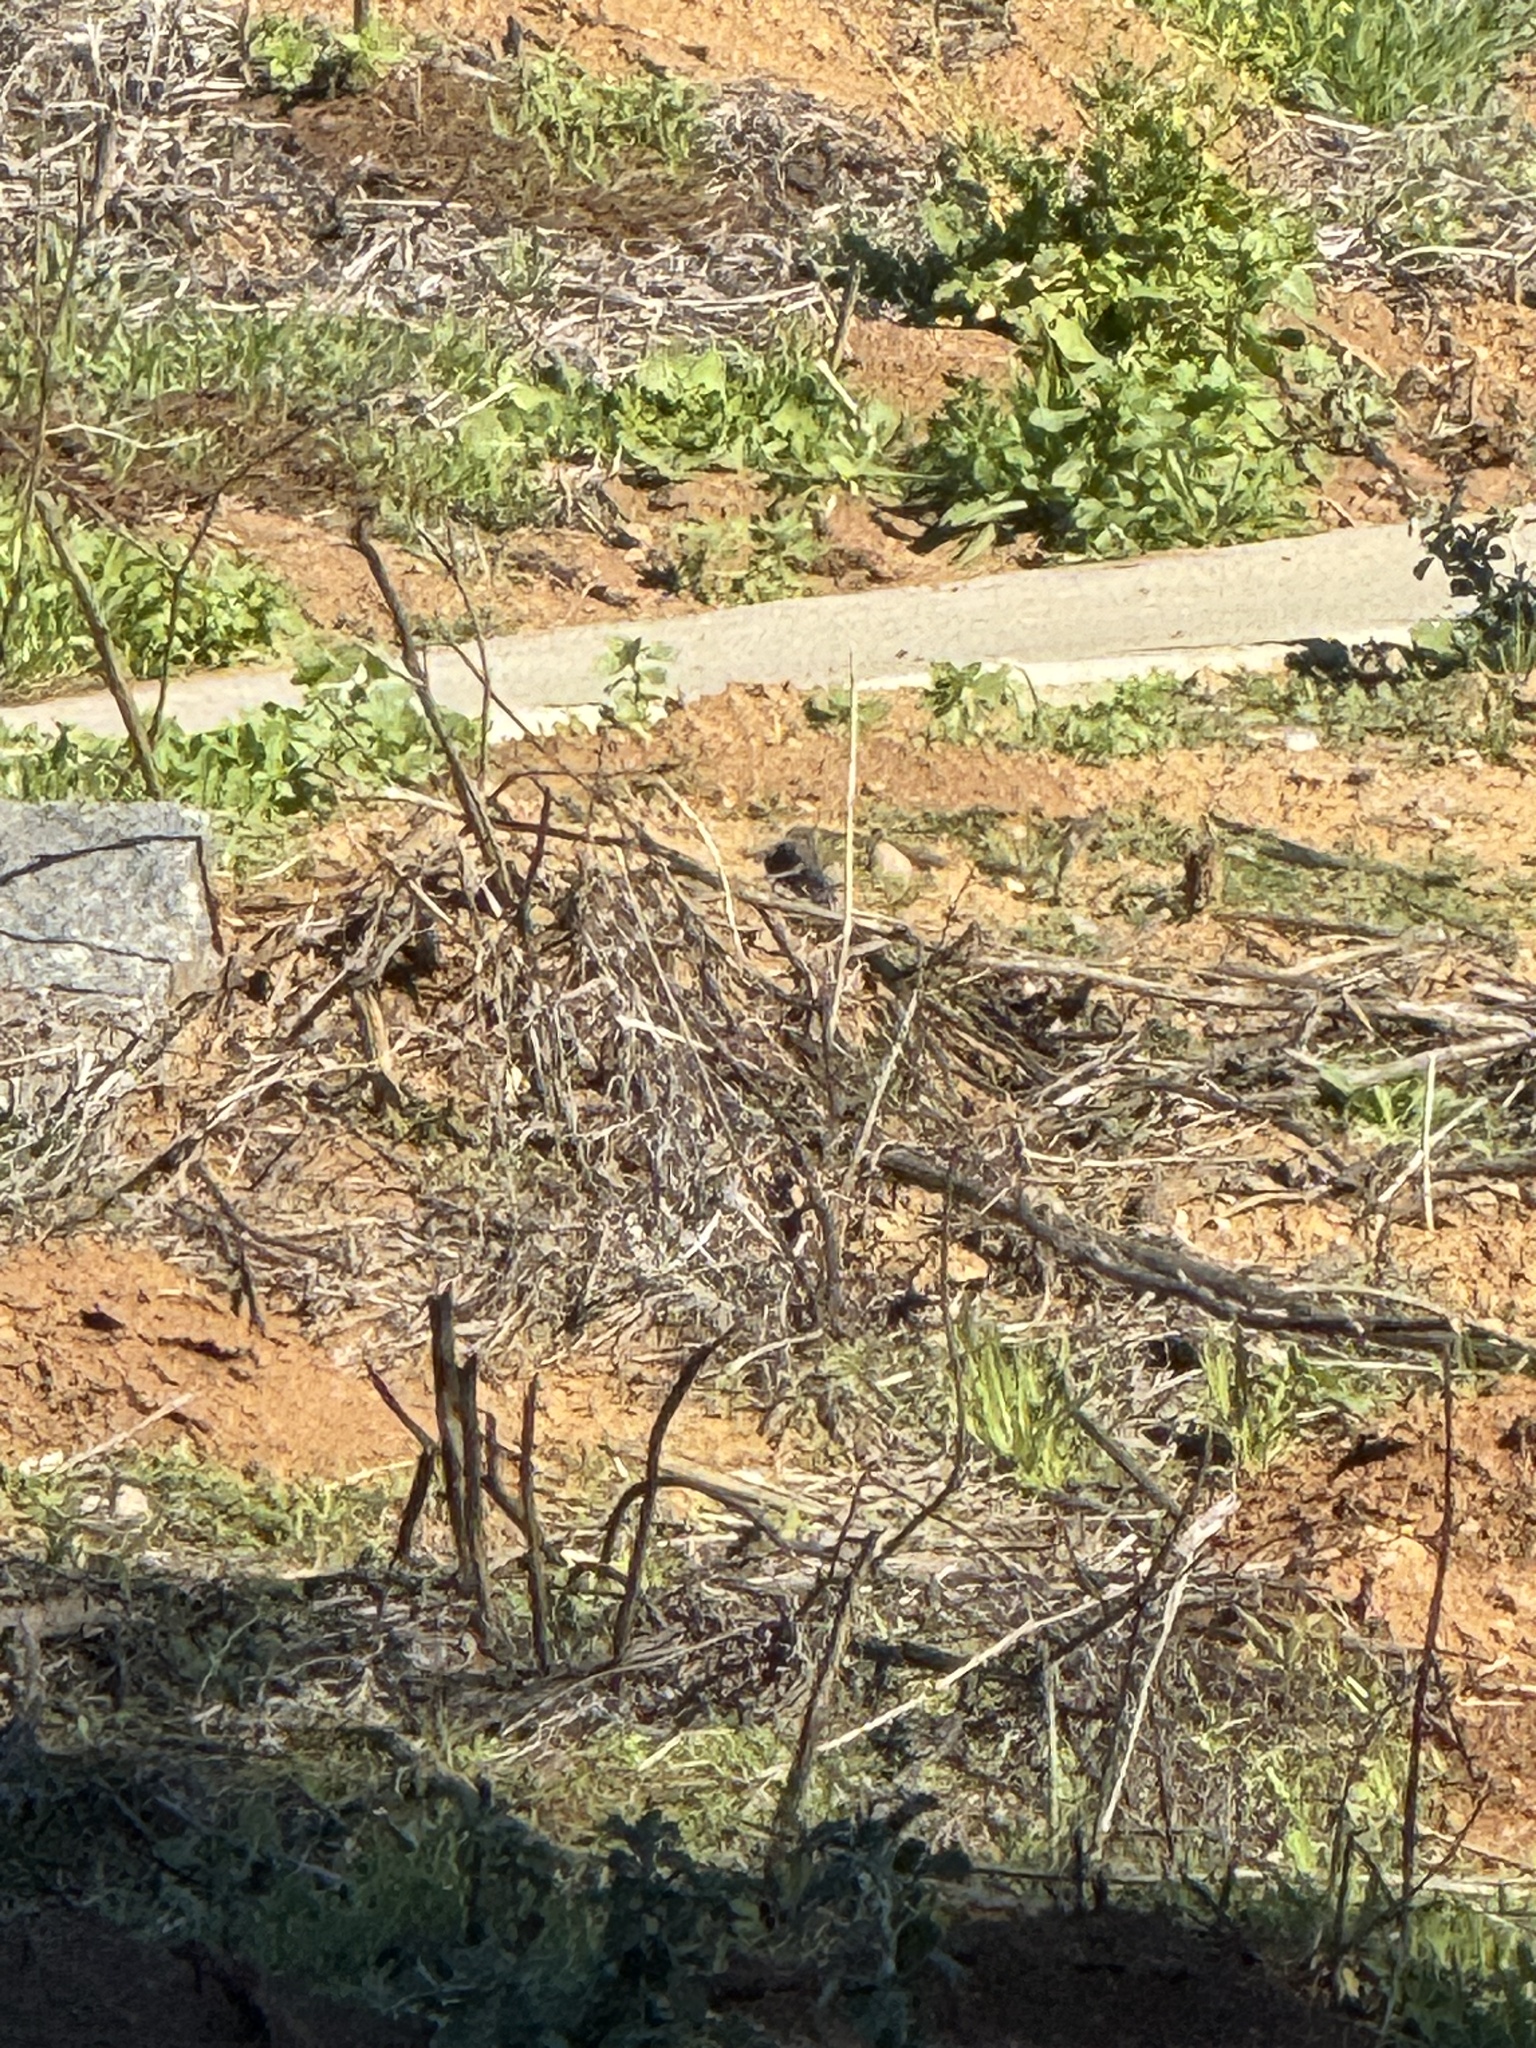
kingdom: Animalia
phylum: Chordata
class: Aves
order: Passeriformes
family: Turdidae
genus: Sialia
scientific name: Sialia mexicana
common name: Western bluebird
